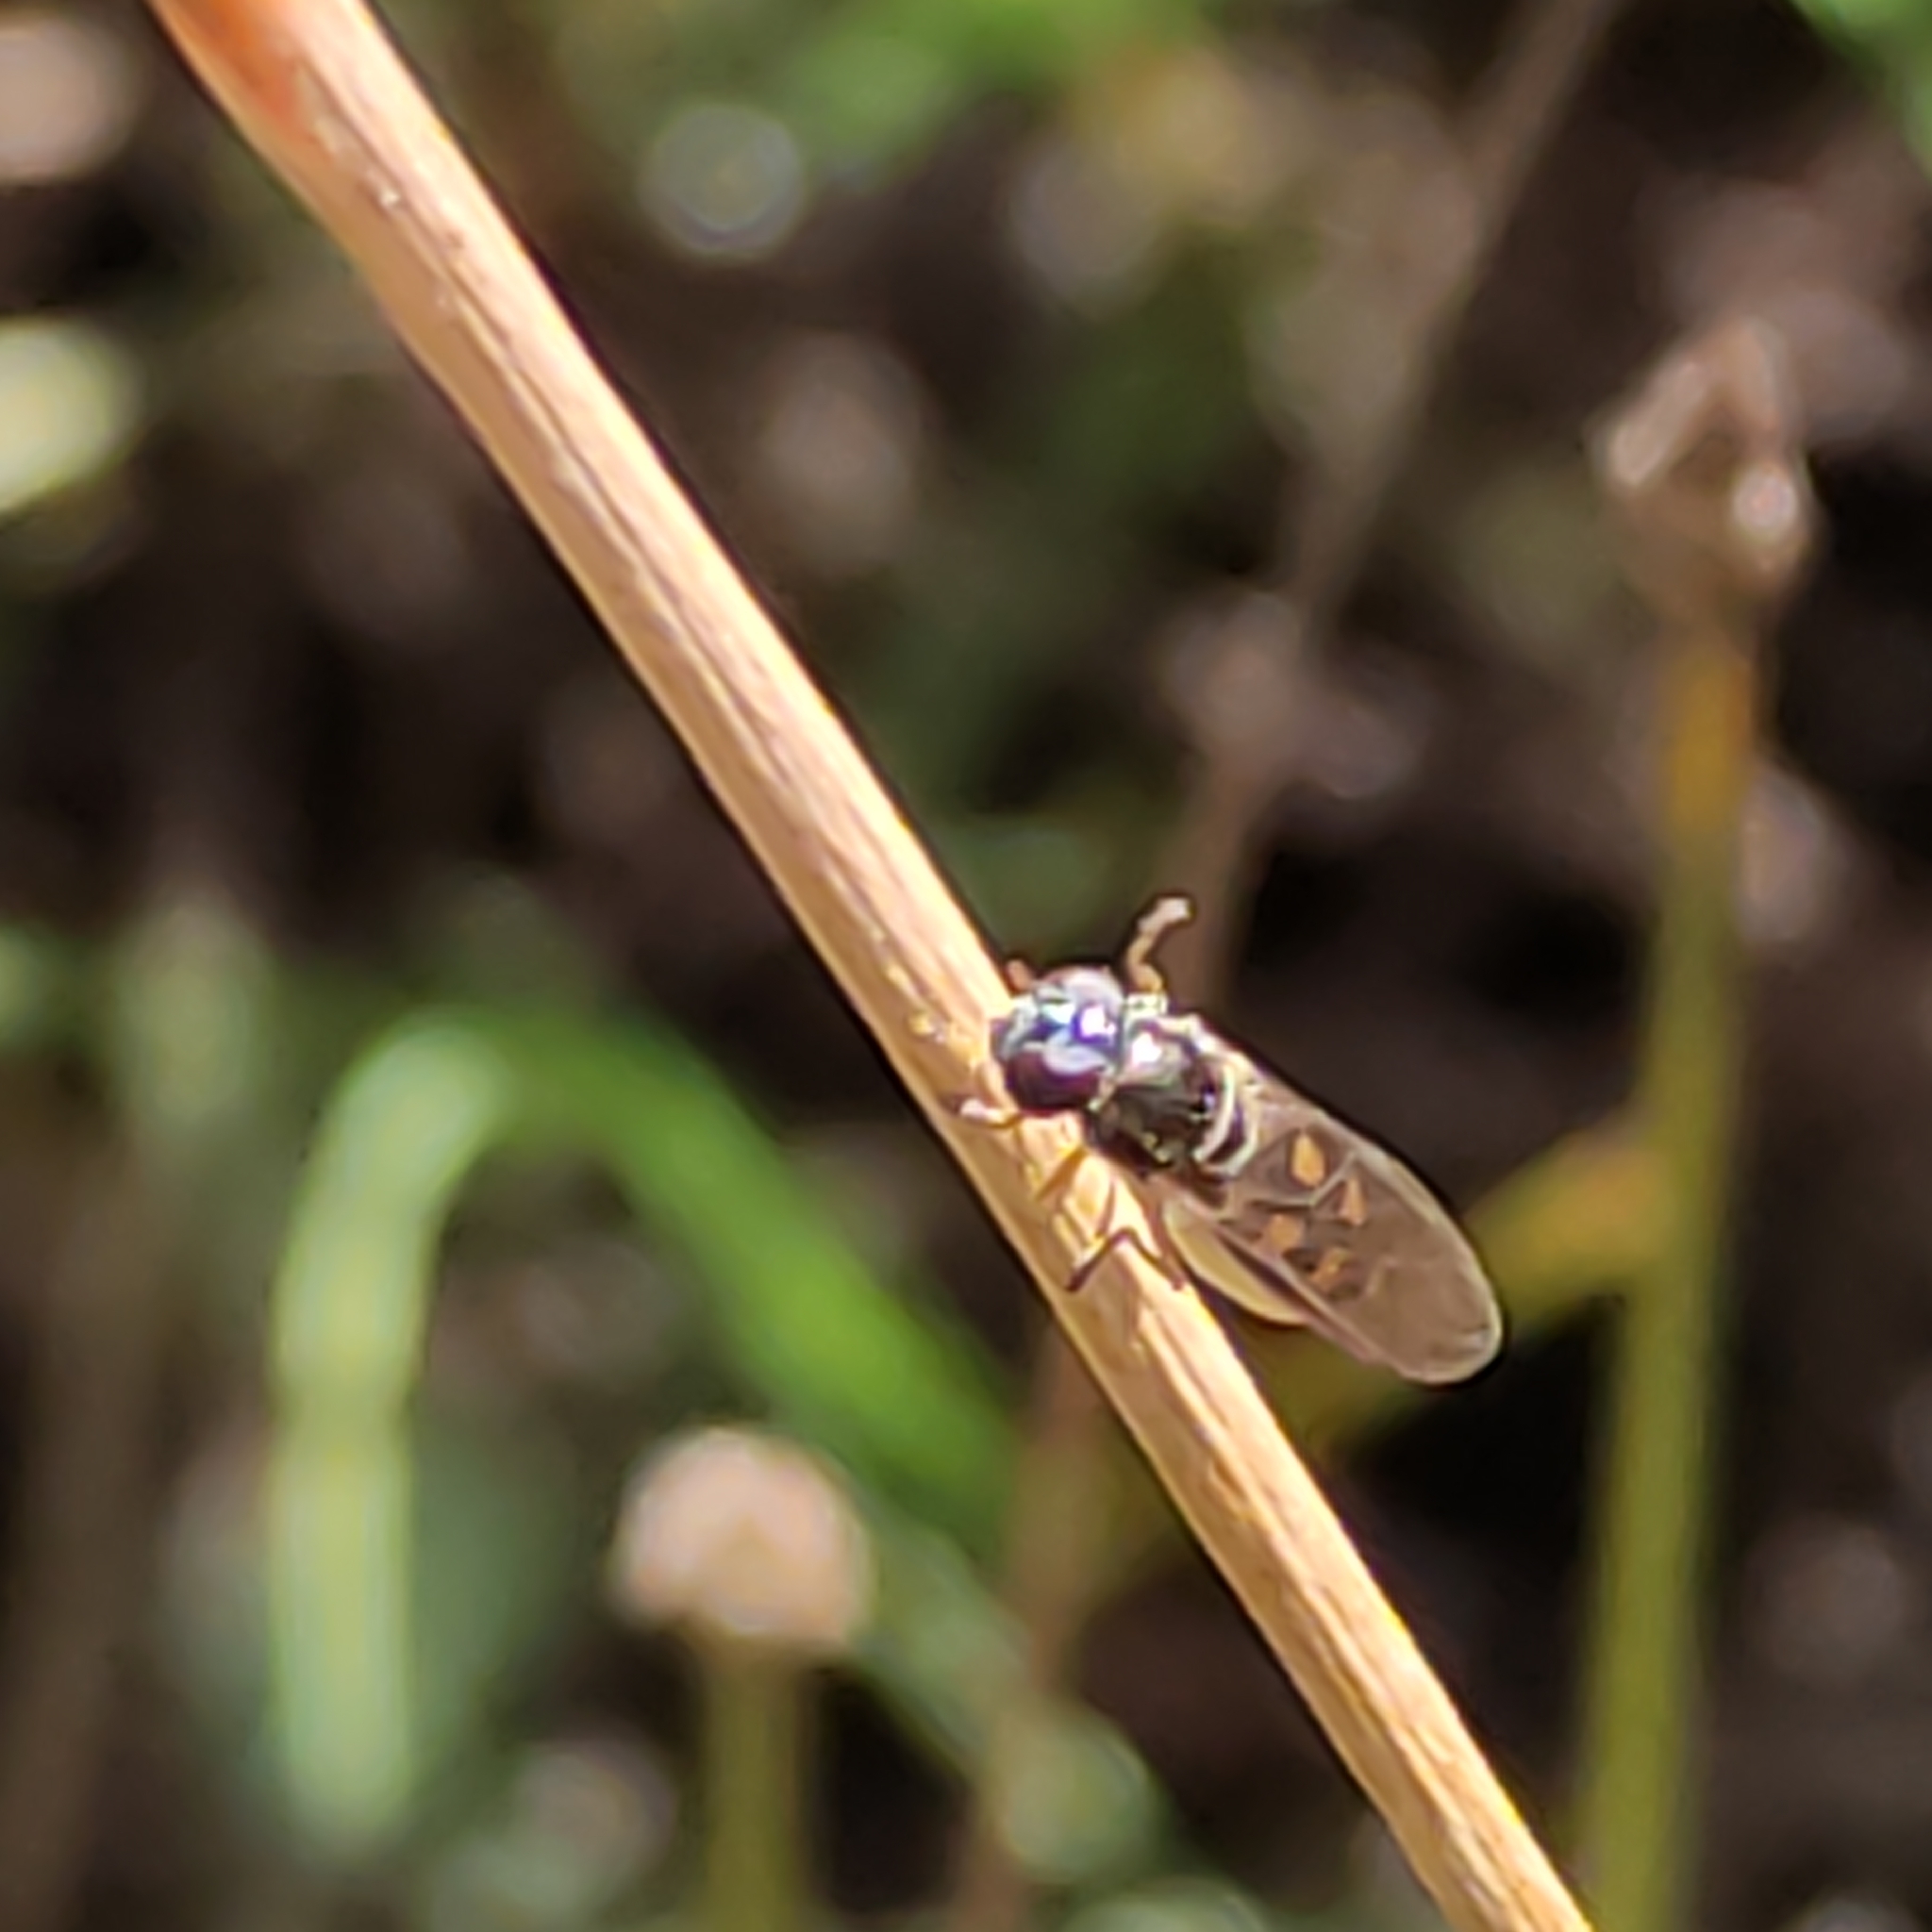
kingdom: Animalia
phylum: Arthropoda
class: Insecta
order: Diptera
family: Syrphidae
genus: Melanostoma
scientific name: Melanostoma fasciatum
